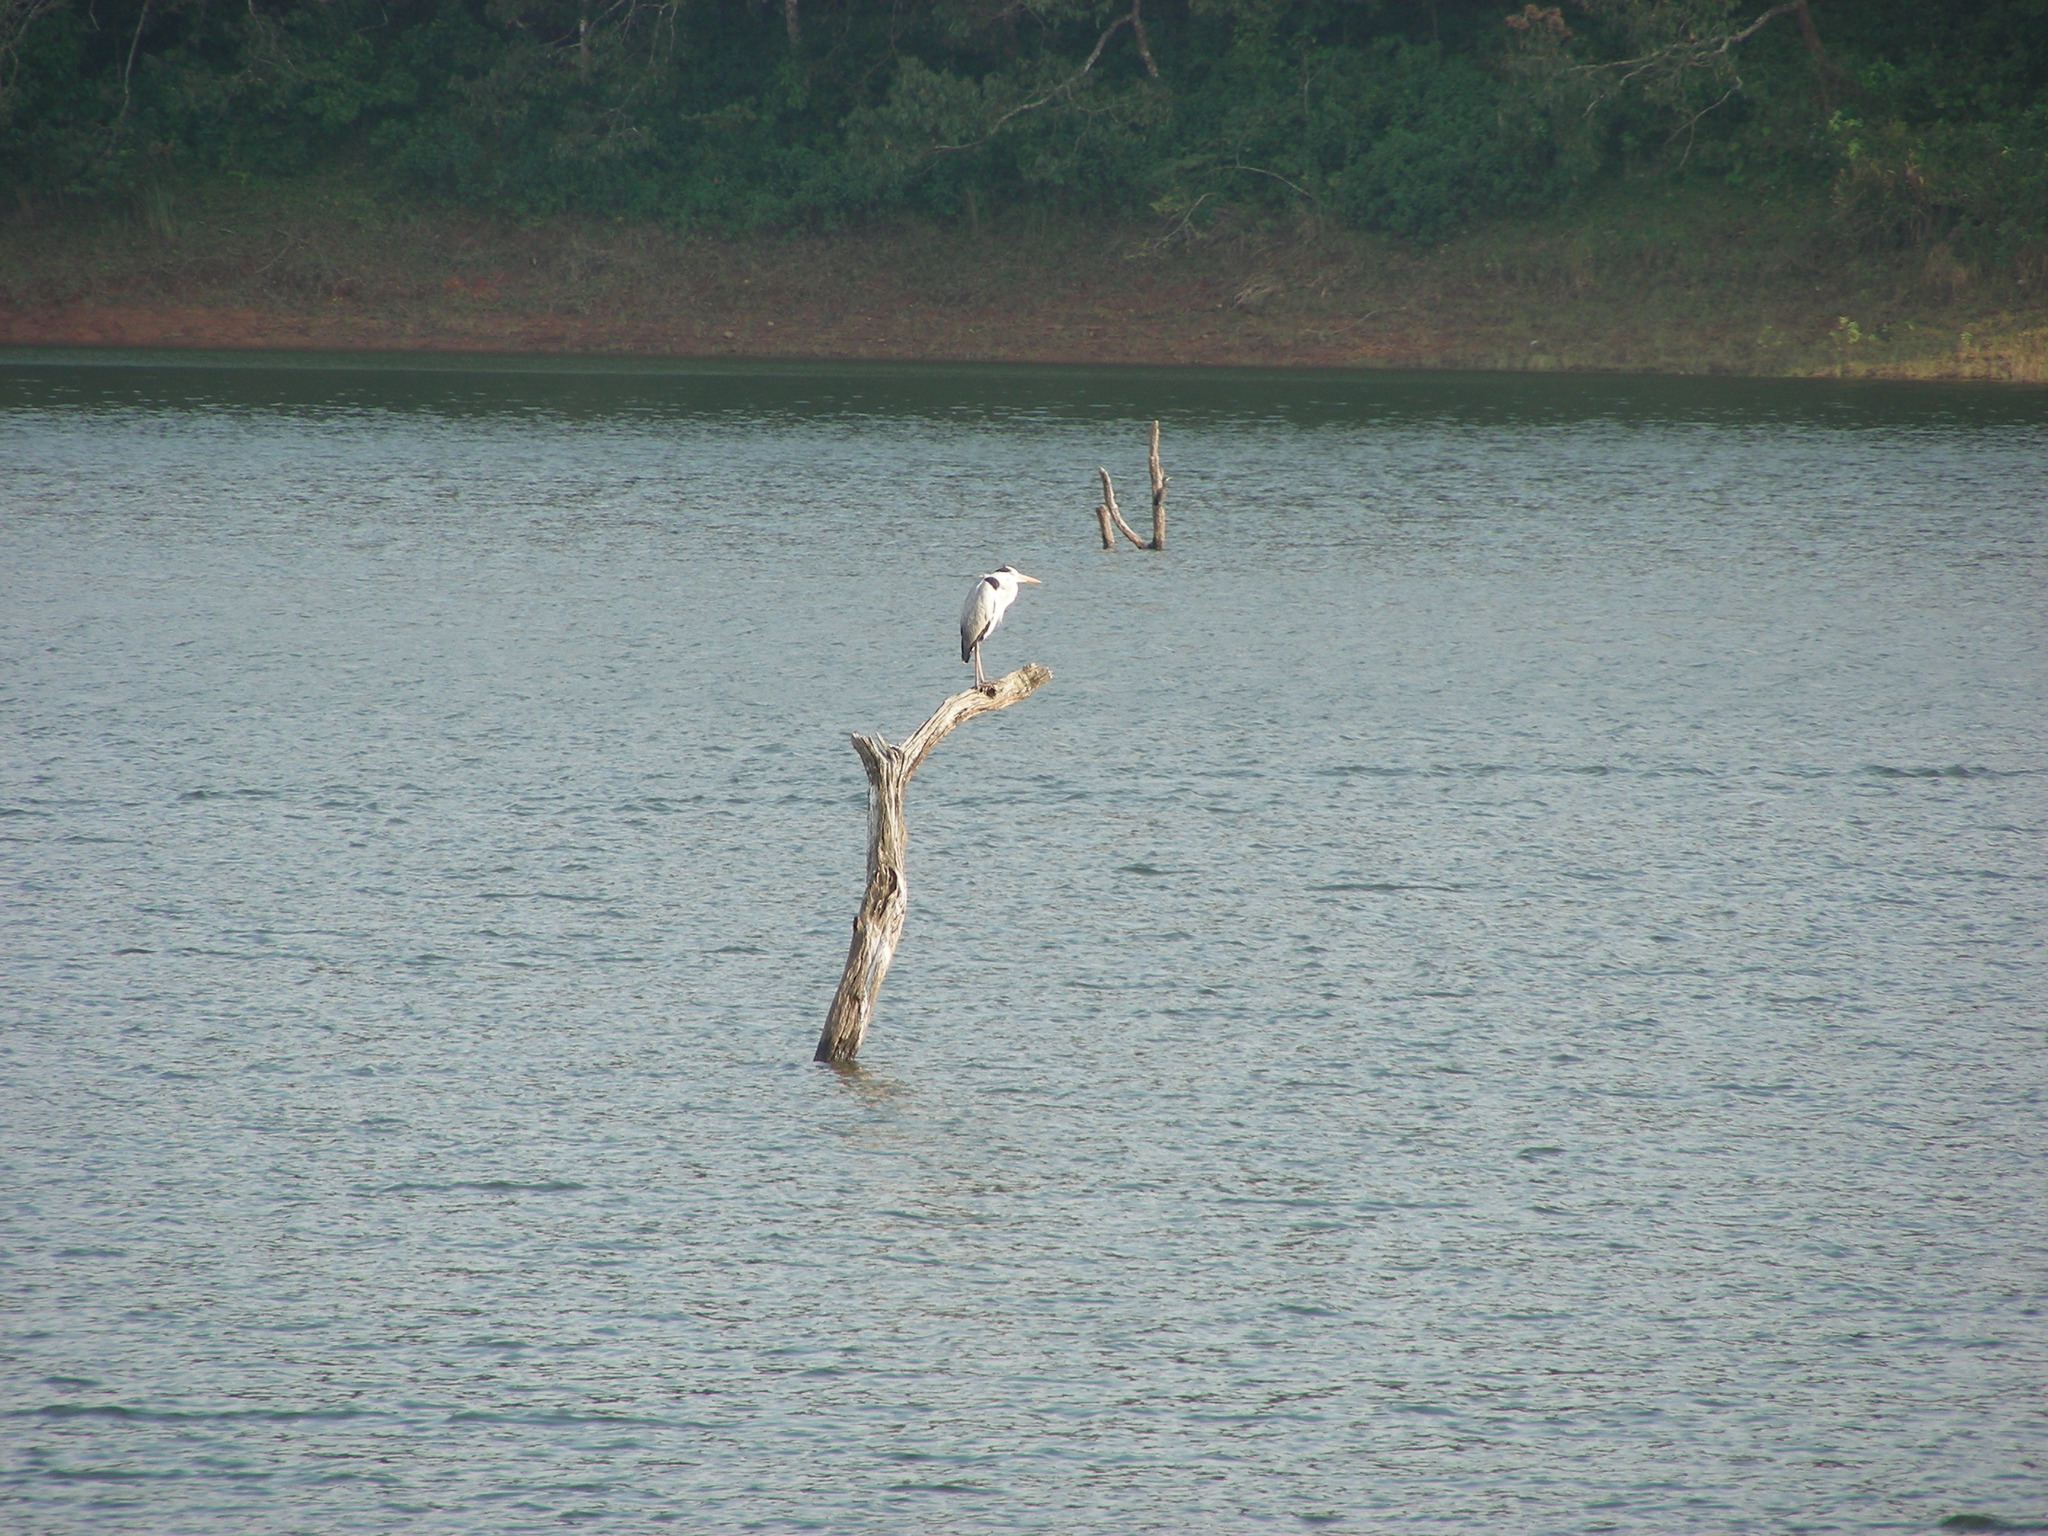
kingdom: Animalia
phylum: Chordata
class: Aves
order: Pelecaniformes
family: Ardeidae
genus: Ardea
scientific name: Ardea cinerea
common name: Grey heron
